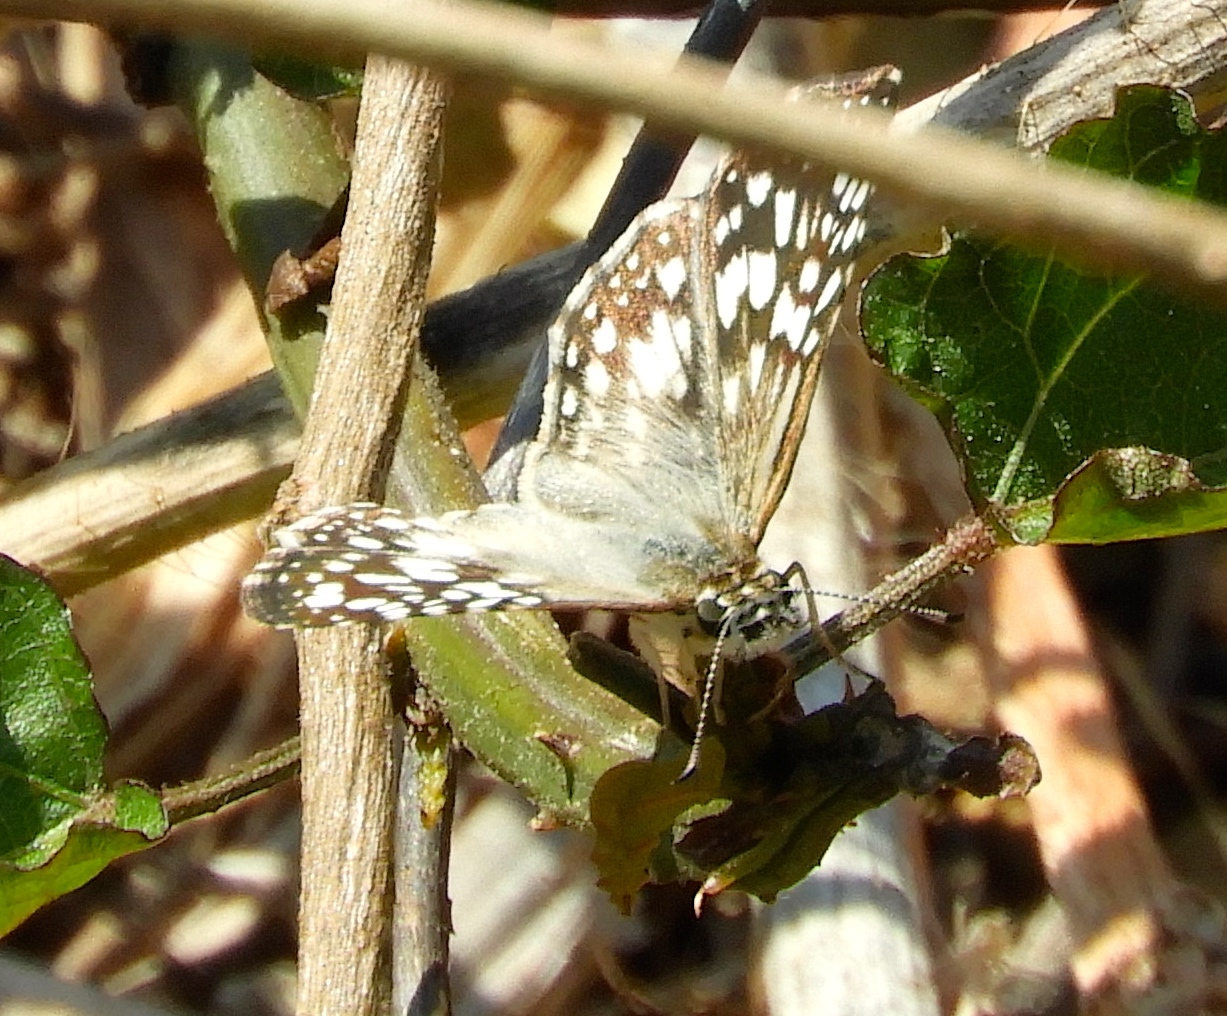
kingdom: Animalia
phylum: Arthropoda
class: Insecta
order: Lepidoptera
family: Hesperiidae
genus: Pyrgus
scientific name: Pyrgus oileus
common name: Tropical checkered-skipper
